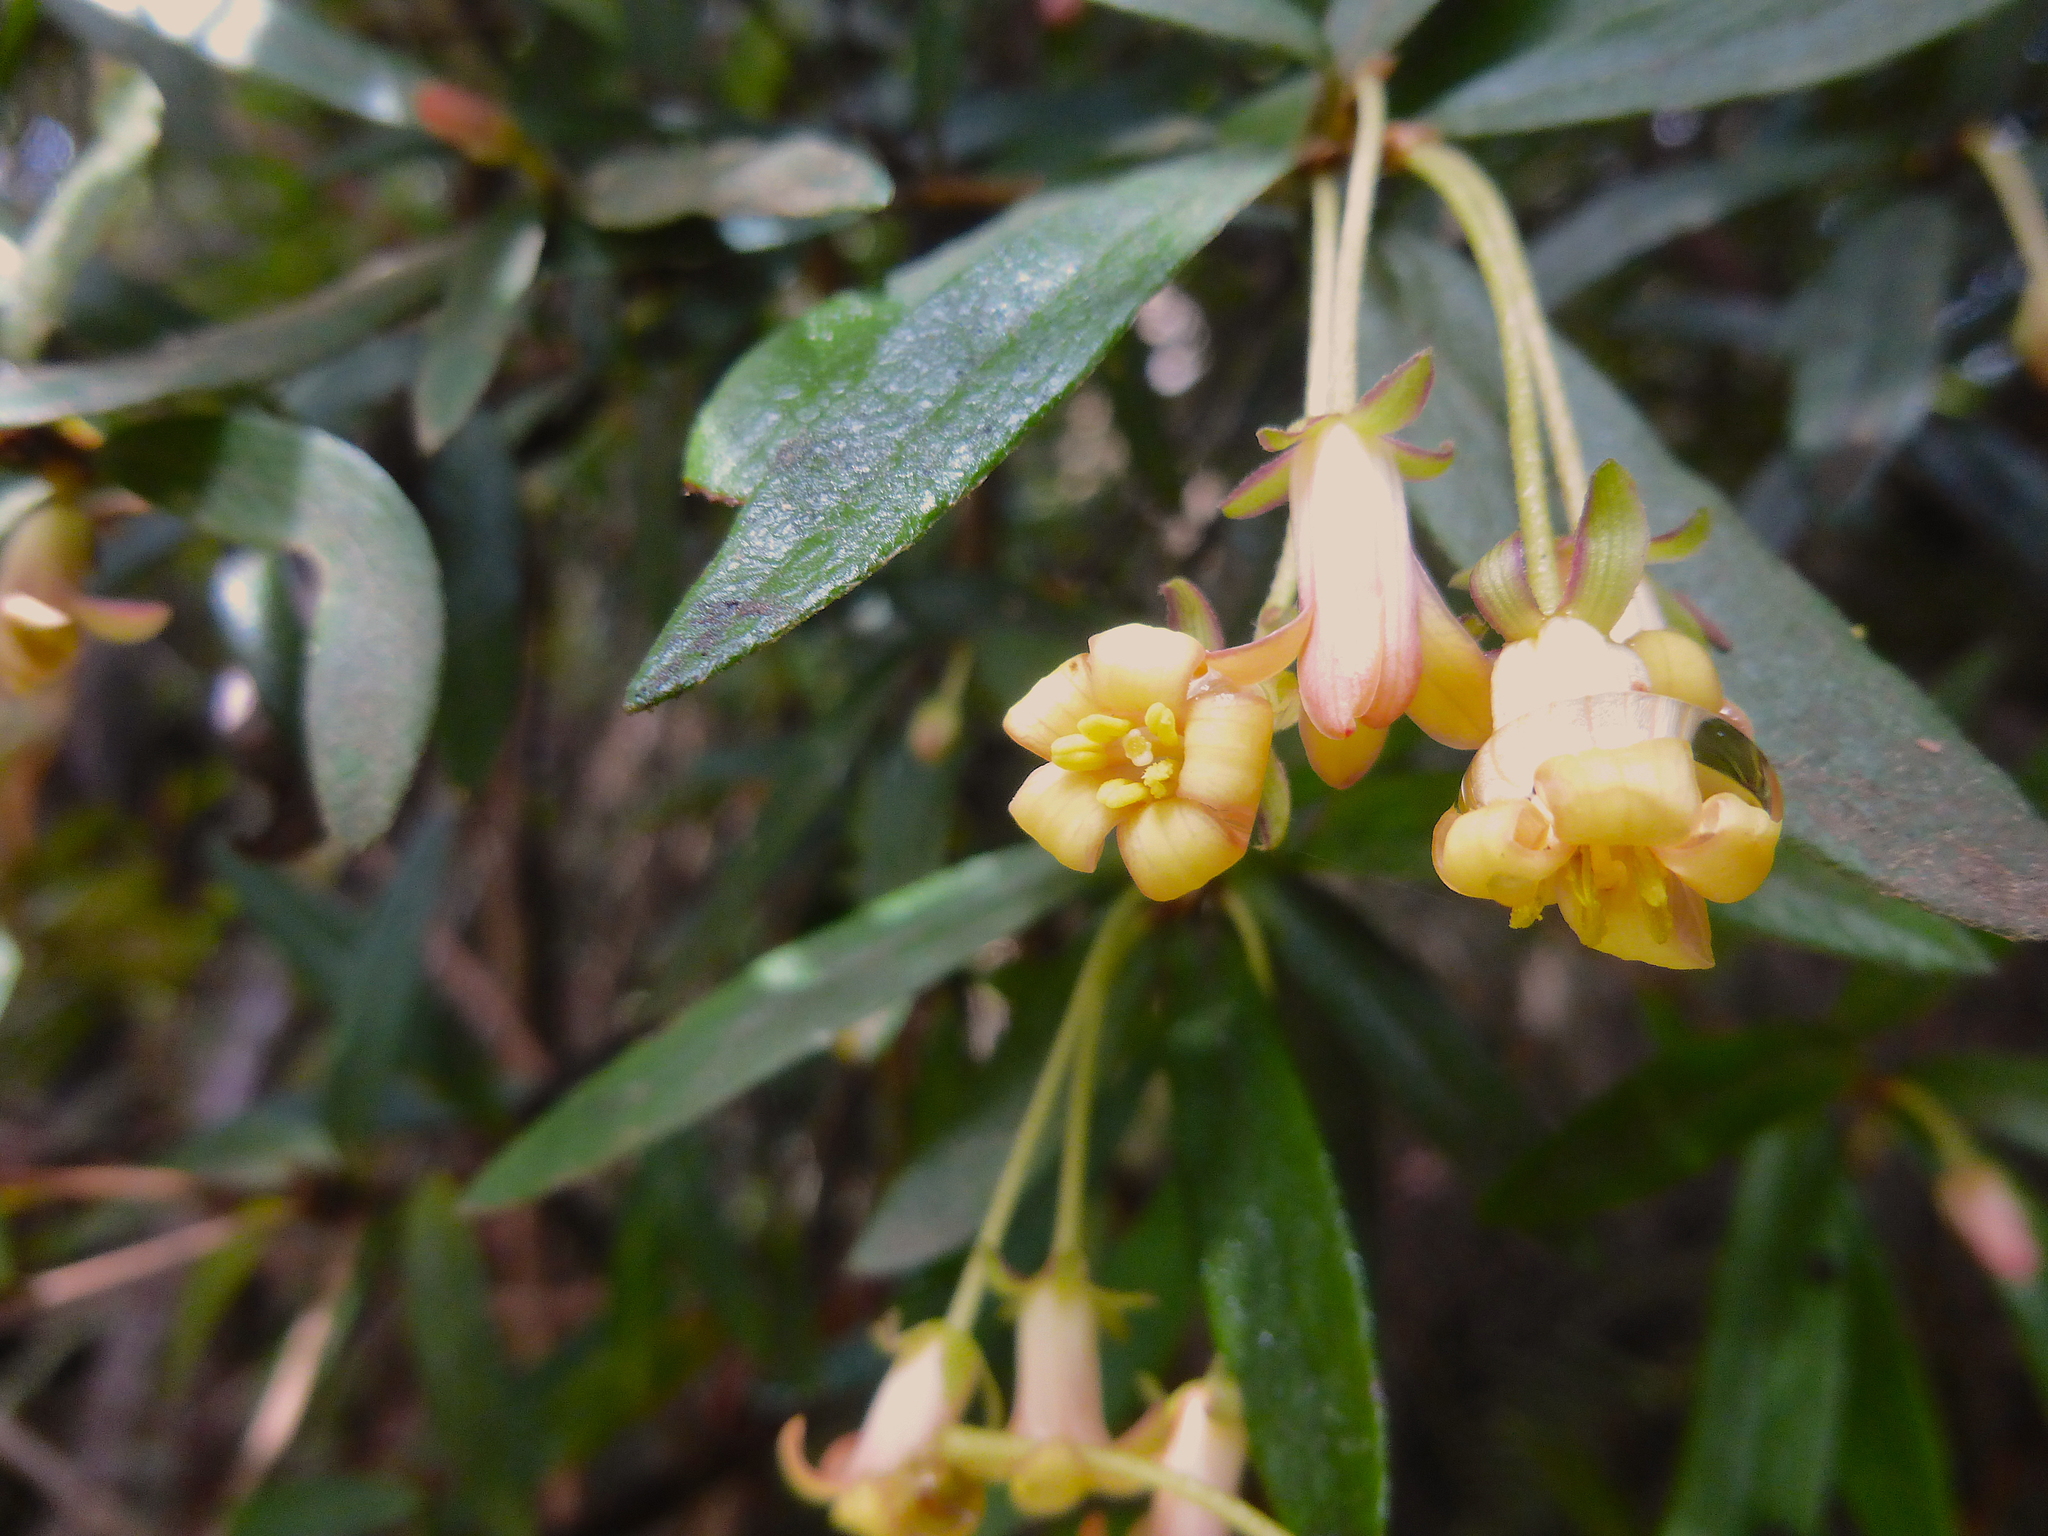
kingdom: Plantae
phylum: Tracheophyta
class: Magnoliopsida
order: Apiales
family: Pittosporaceae
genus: Pittosporum
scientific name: Pittosporum bicolor
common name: Tallowwood
